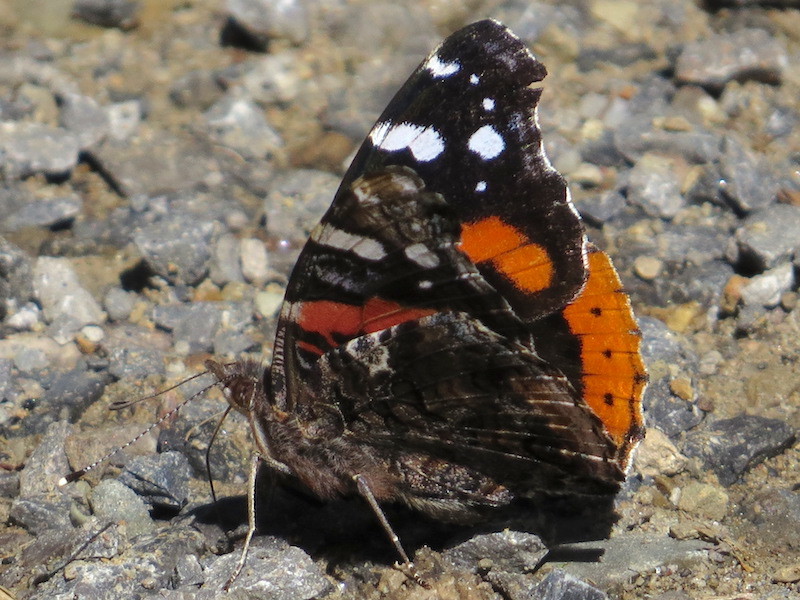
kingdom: Animalia
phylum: Arthropoda
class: Insecta
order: Lepidoptera
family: Nymphalidae
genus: Vanessa
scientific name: Vanessa atalanta
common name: Red admiral
